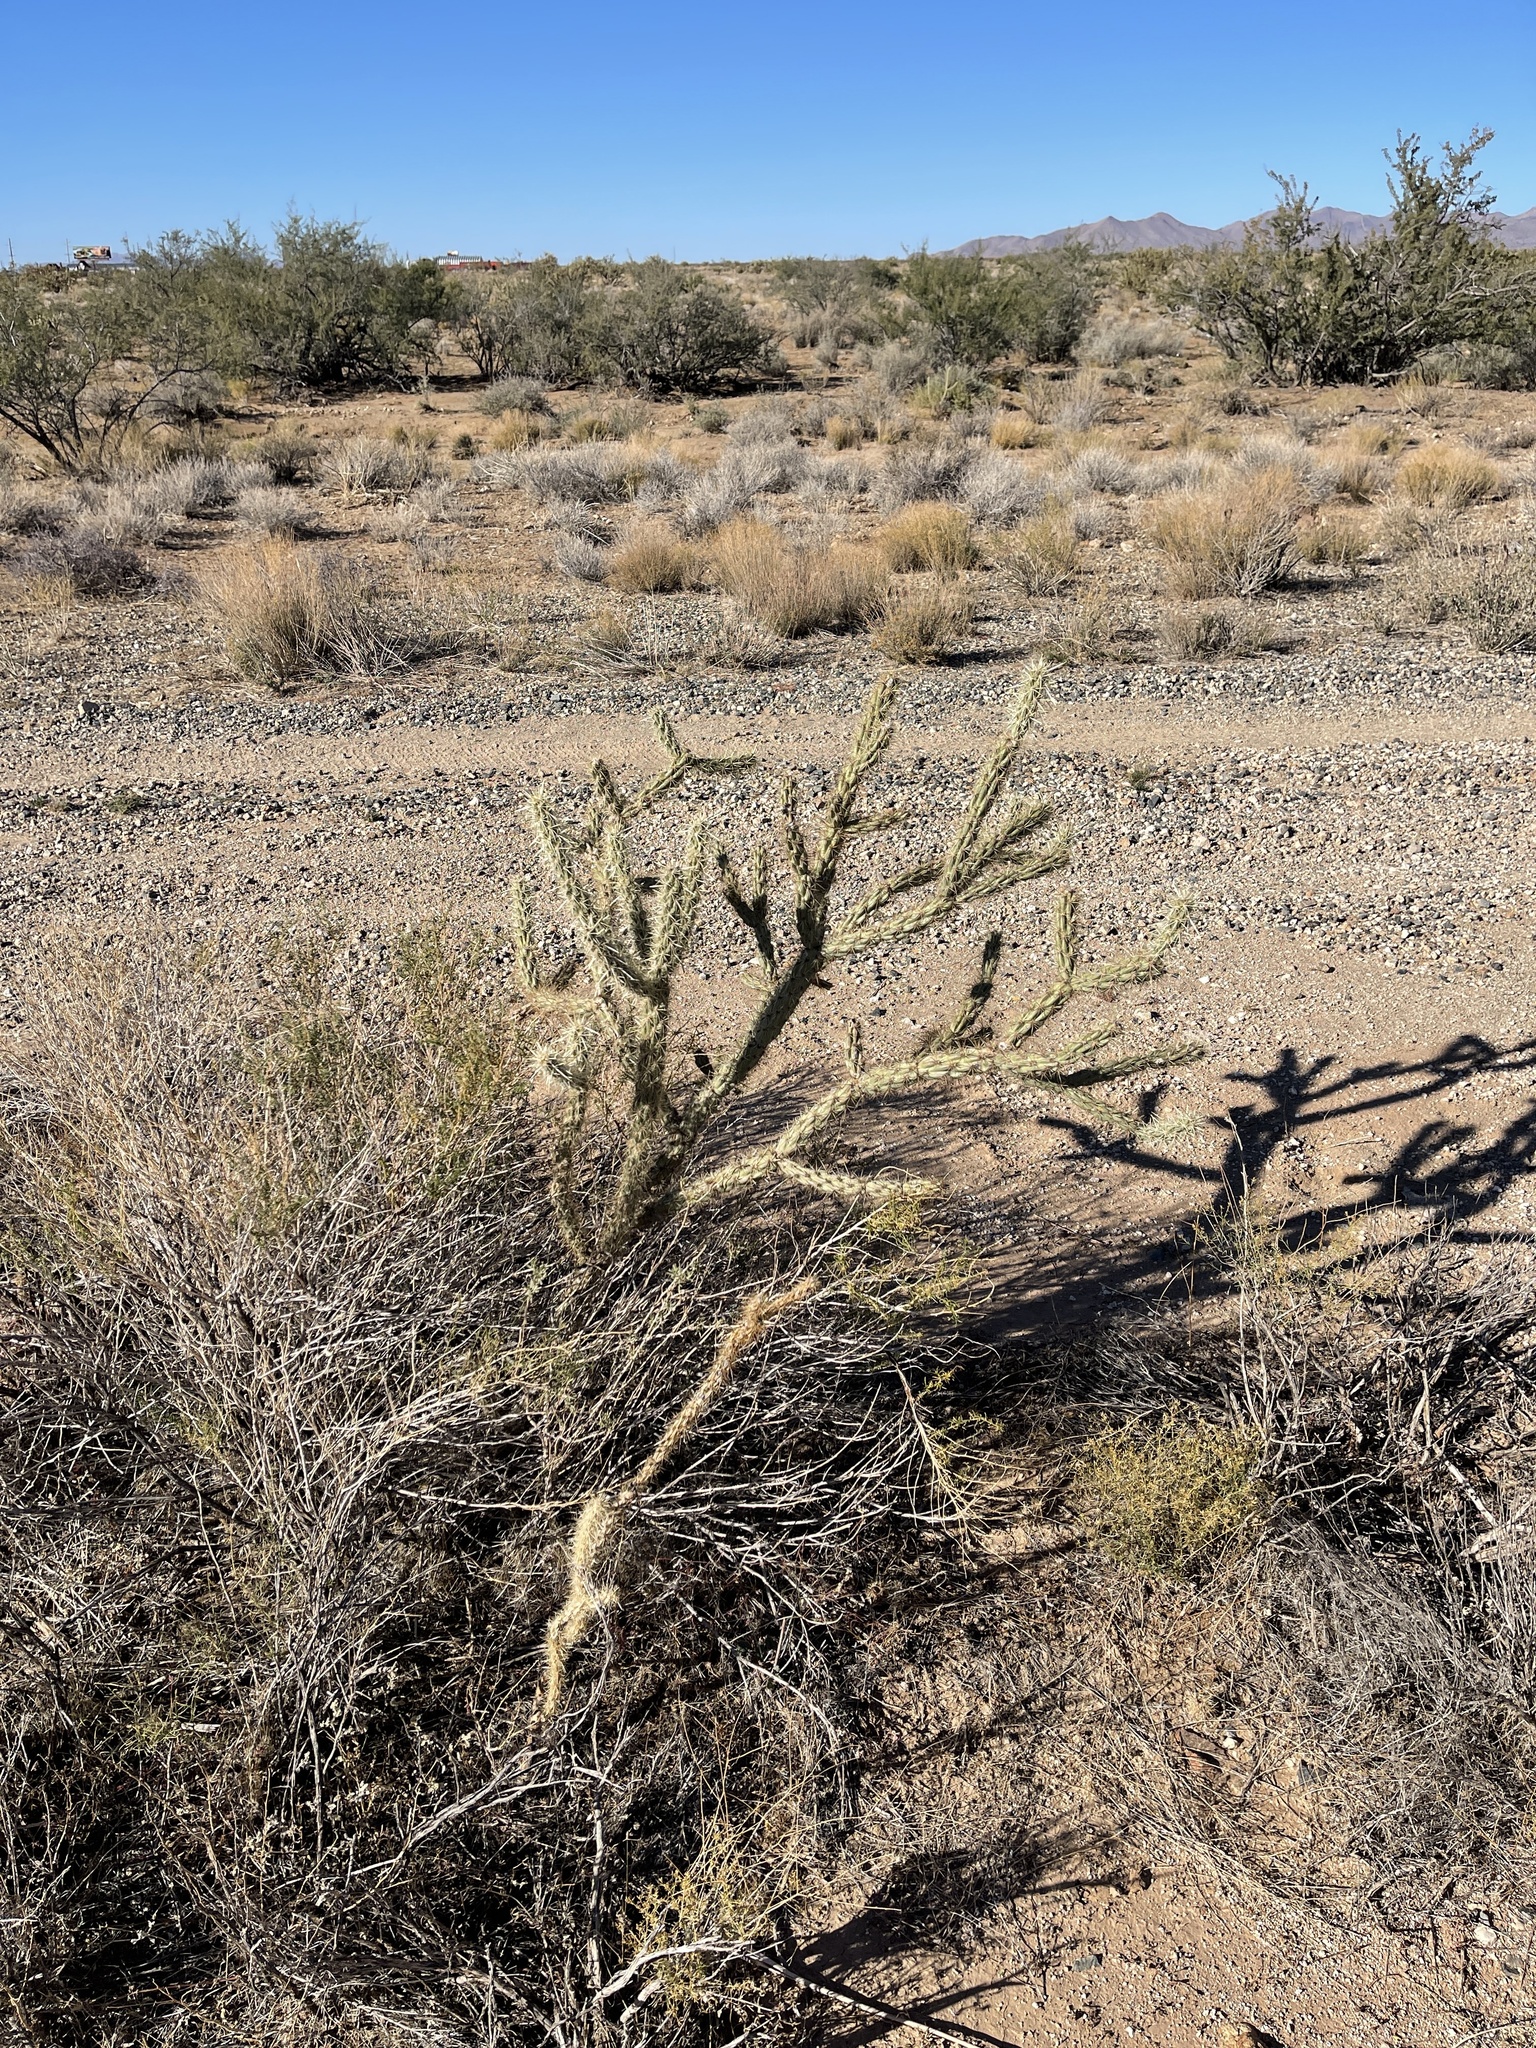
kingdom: Plantae
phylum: Tracheophyta
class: Magnoliopsida
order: Caryophyllales
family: Cactaceae
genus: Cylindropuntia
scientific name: Cylindropuntia acanthocarpa
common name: Buckhorn cholla
